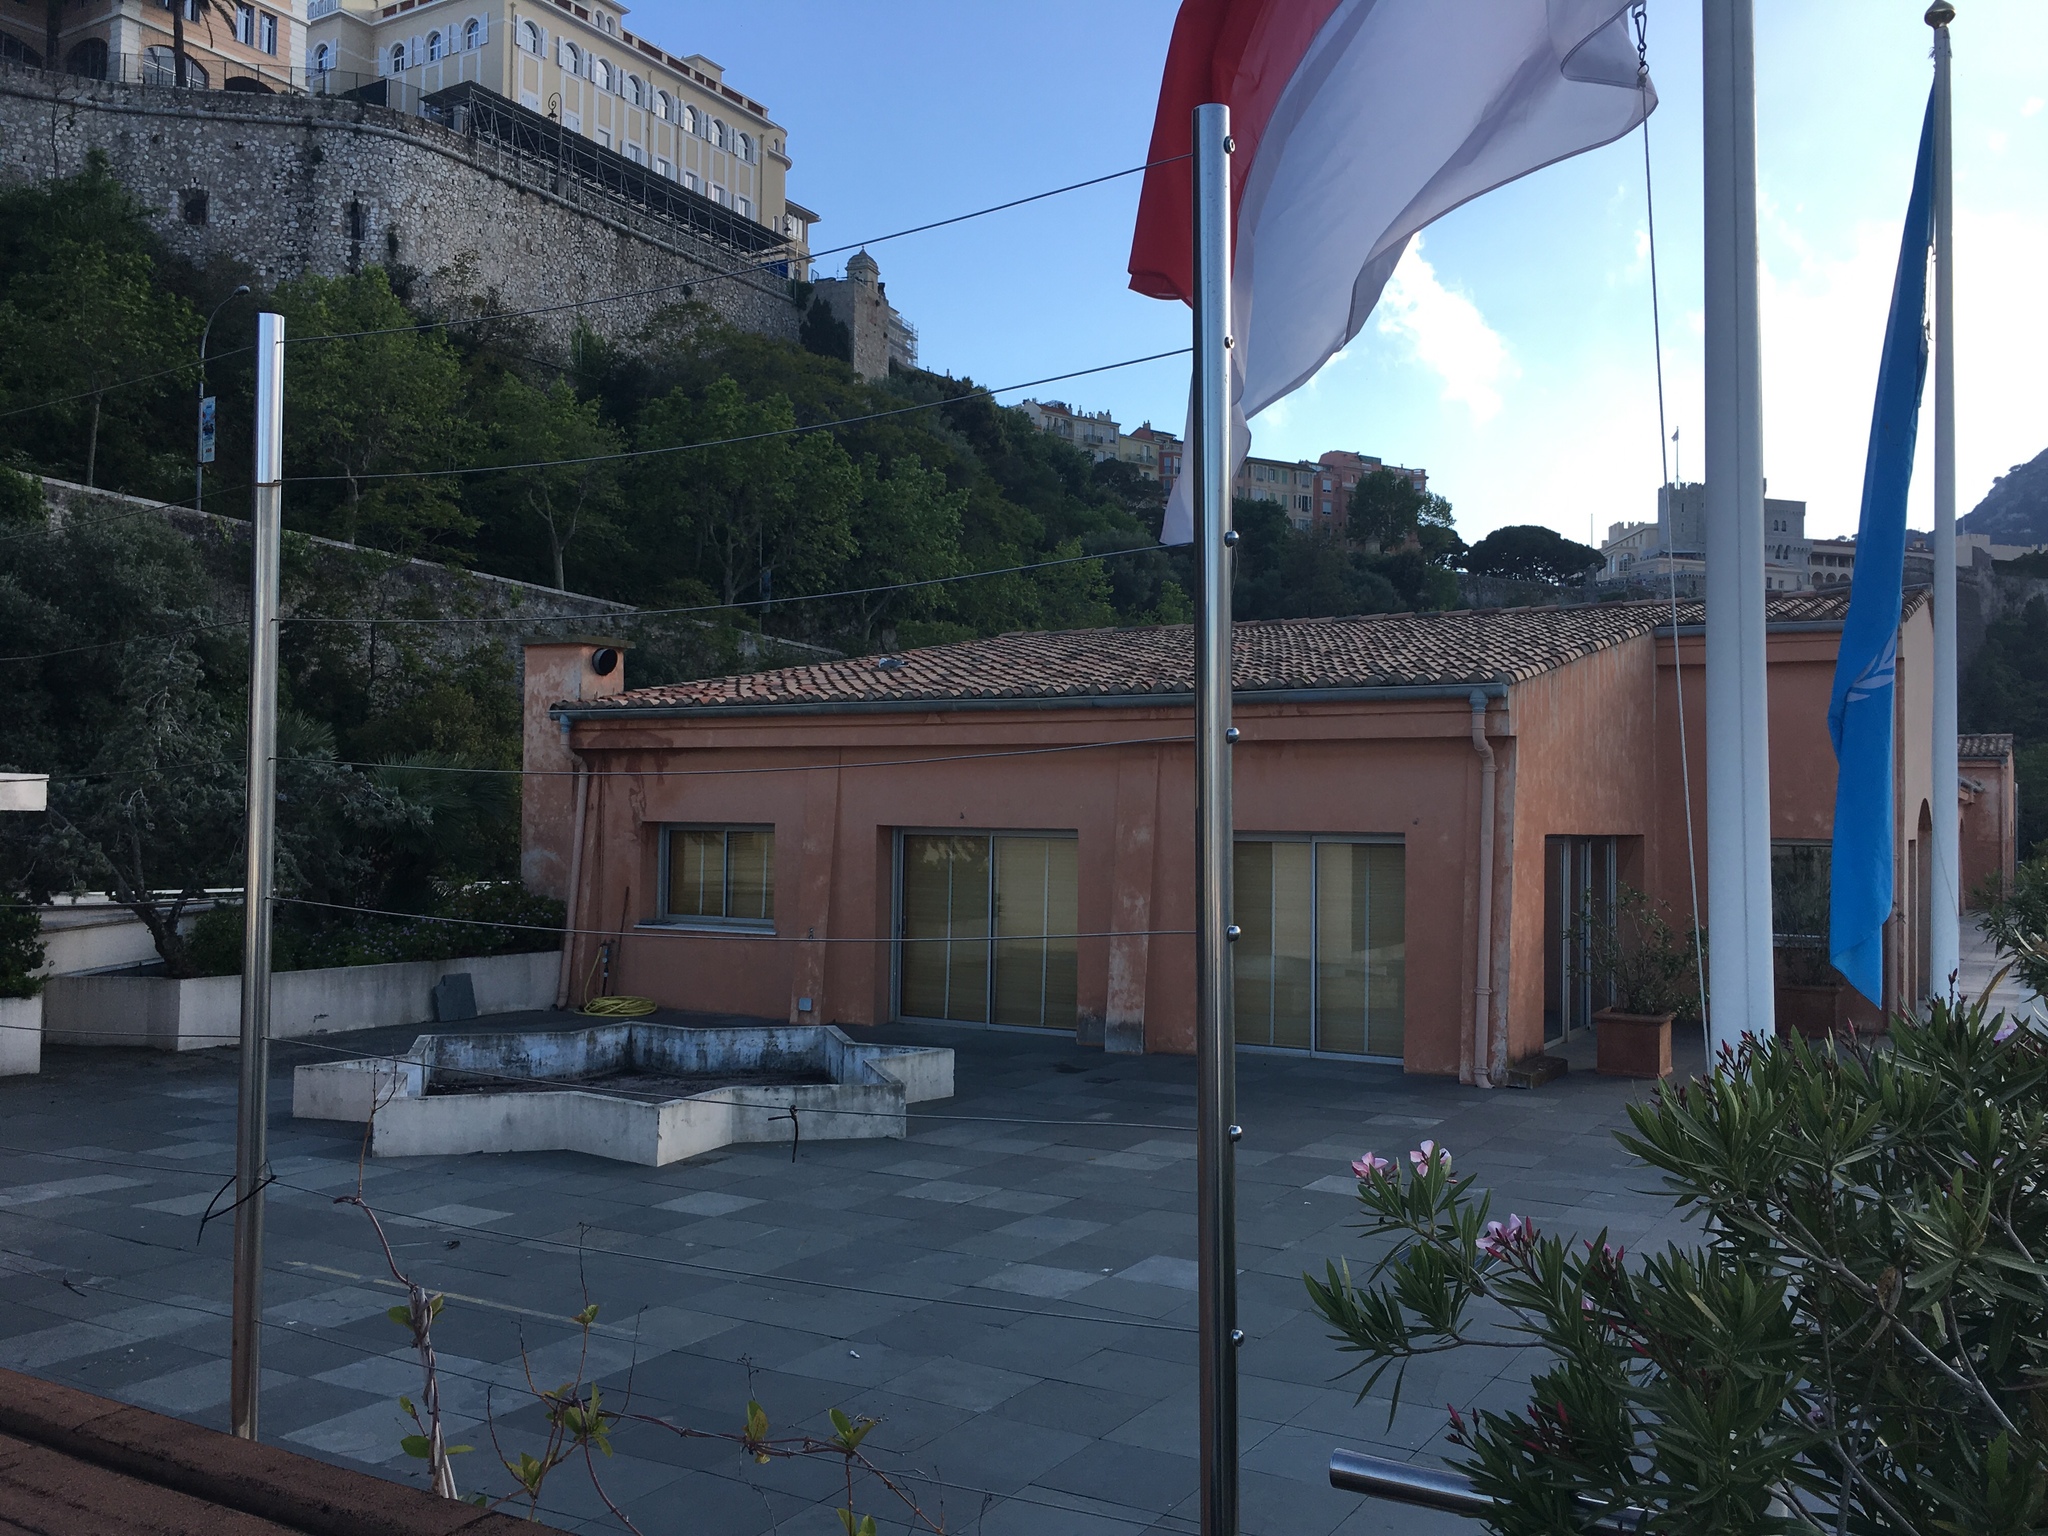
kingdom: Animalia
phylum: Chordata
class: Aves
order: Charadriiformes
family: Laridae
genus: Larus
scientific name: Larus michahellis
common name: Yellow-legged gull
